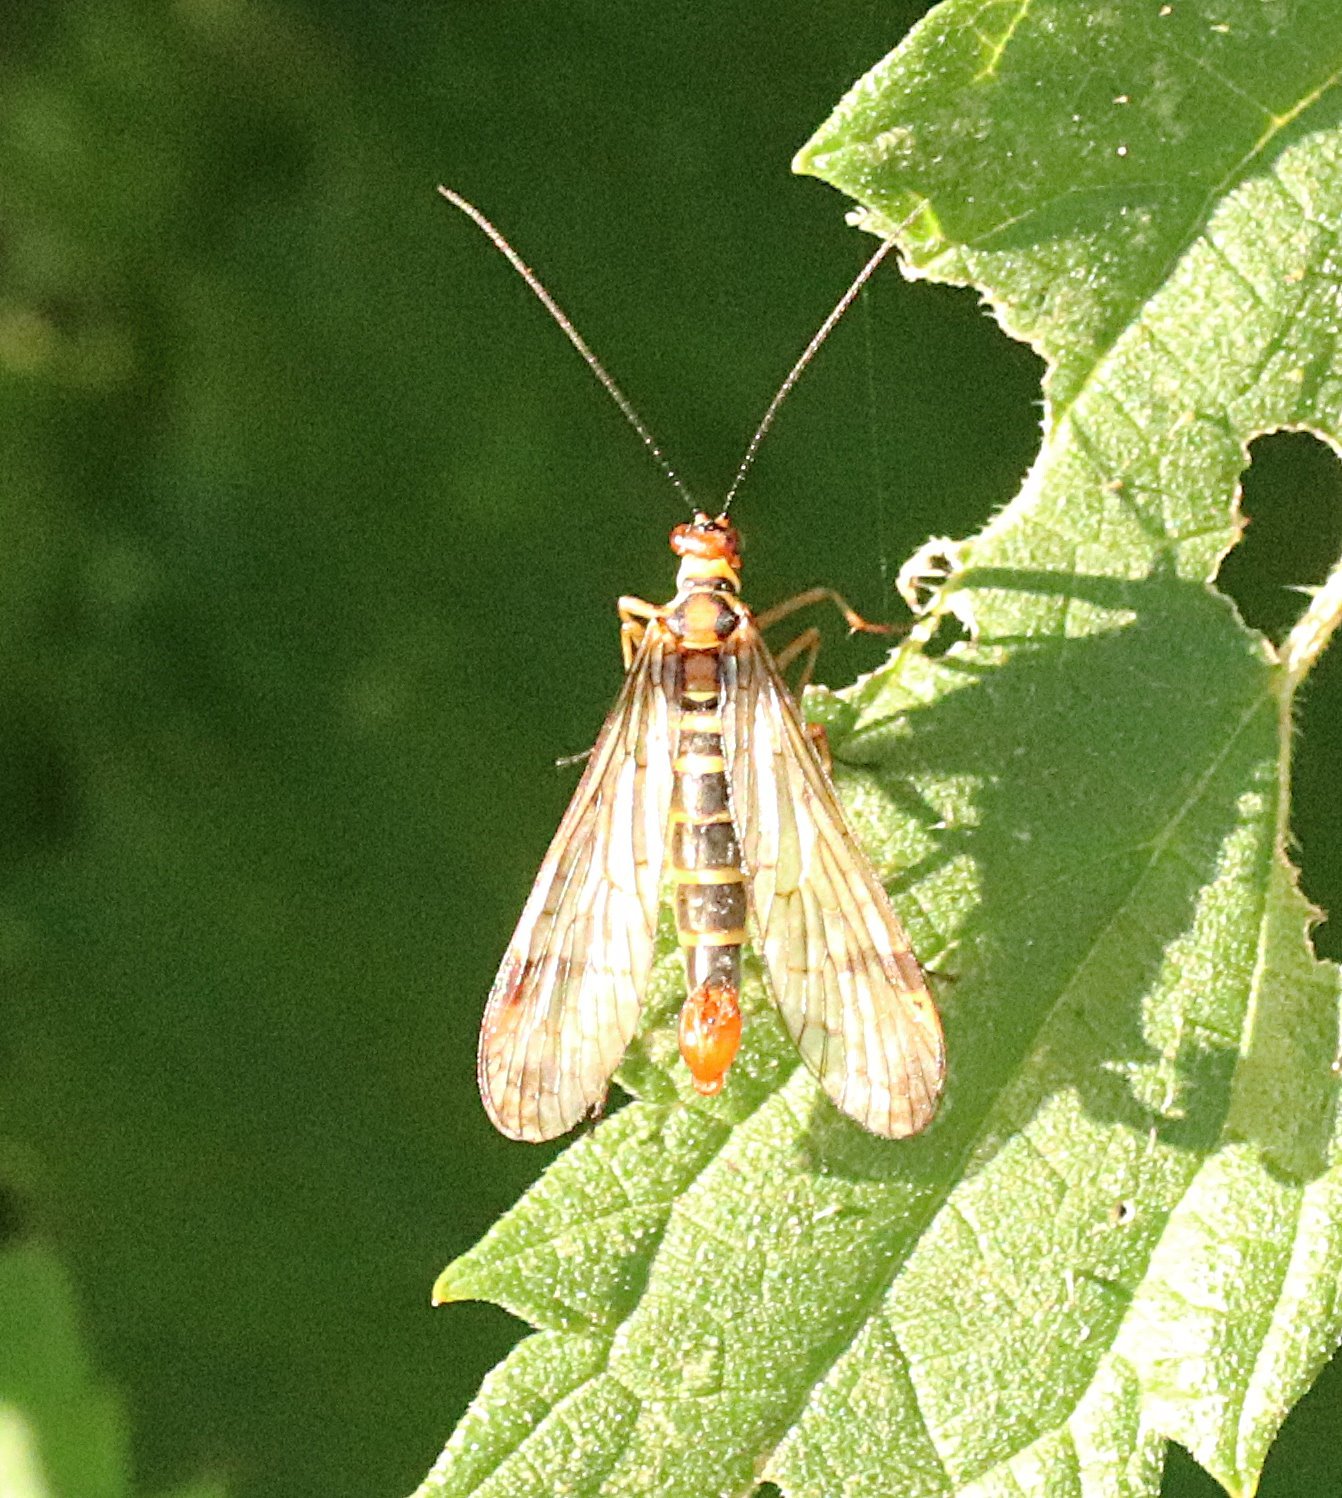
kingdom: Animalia
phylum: Arthropoda
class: Insecta
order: Mecoptera
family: Panorpidae
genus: Panorpa
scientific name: Panorpa communis
